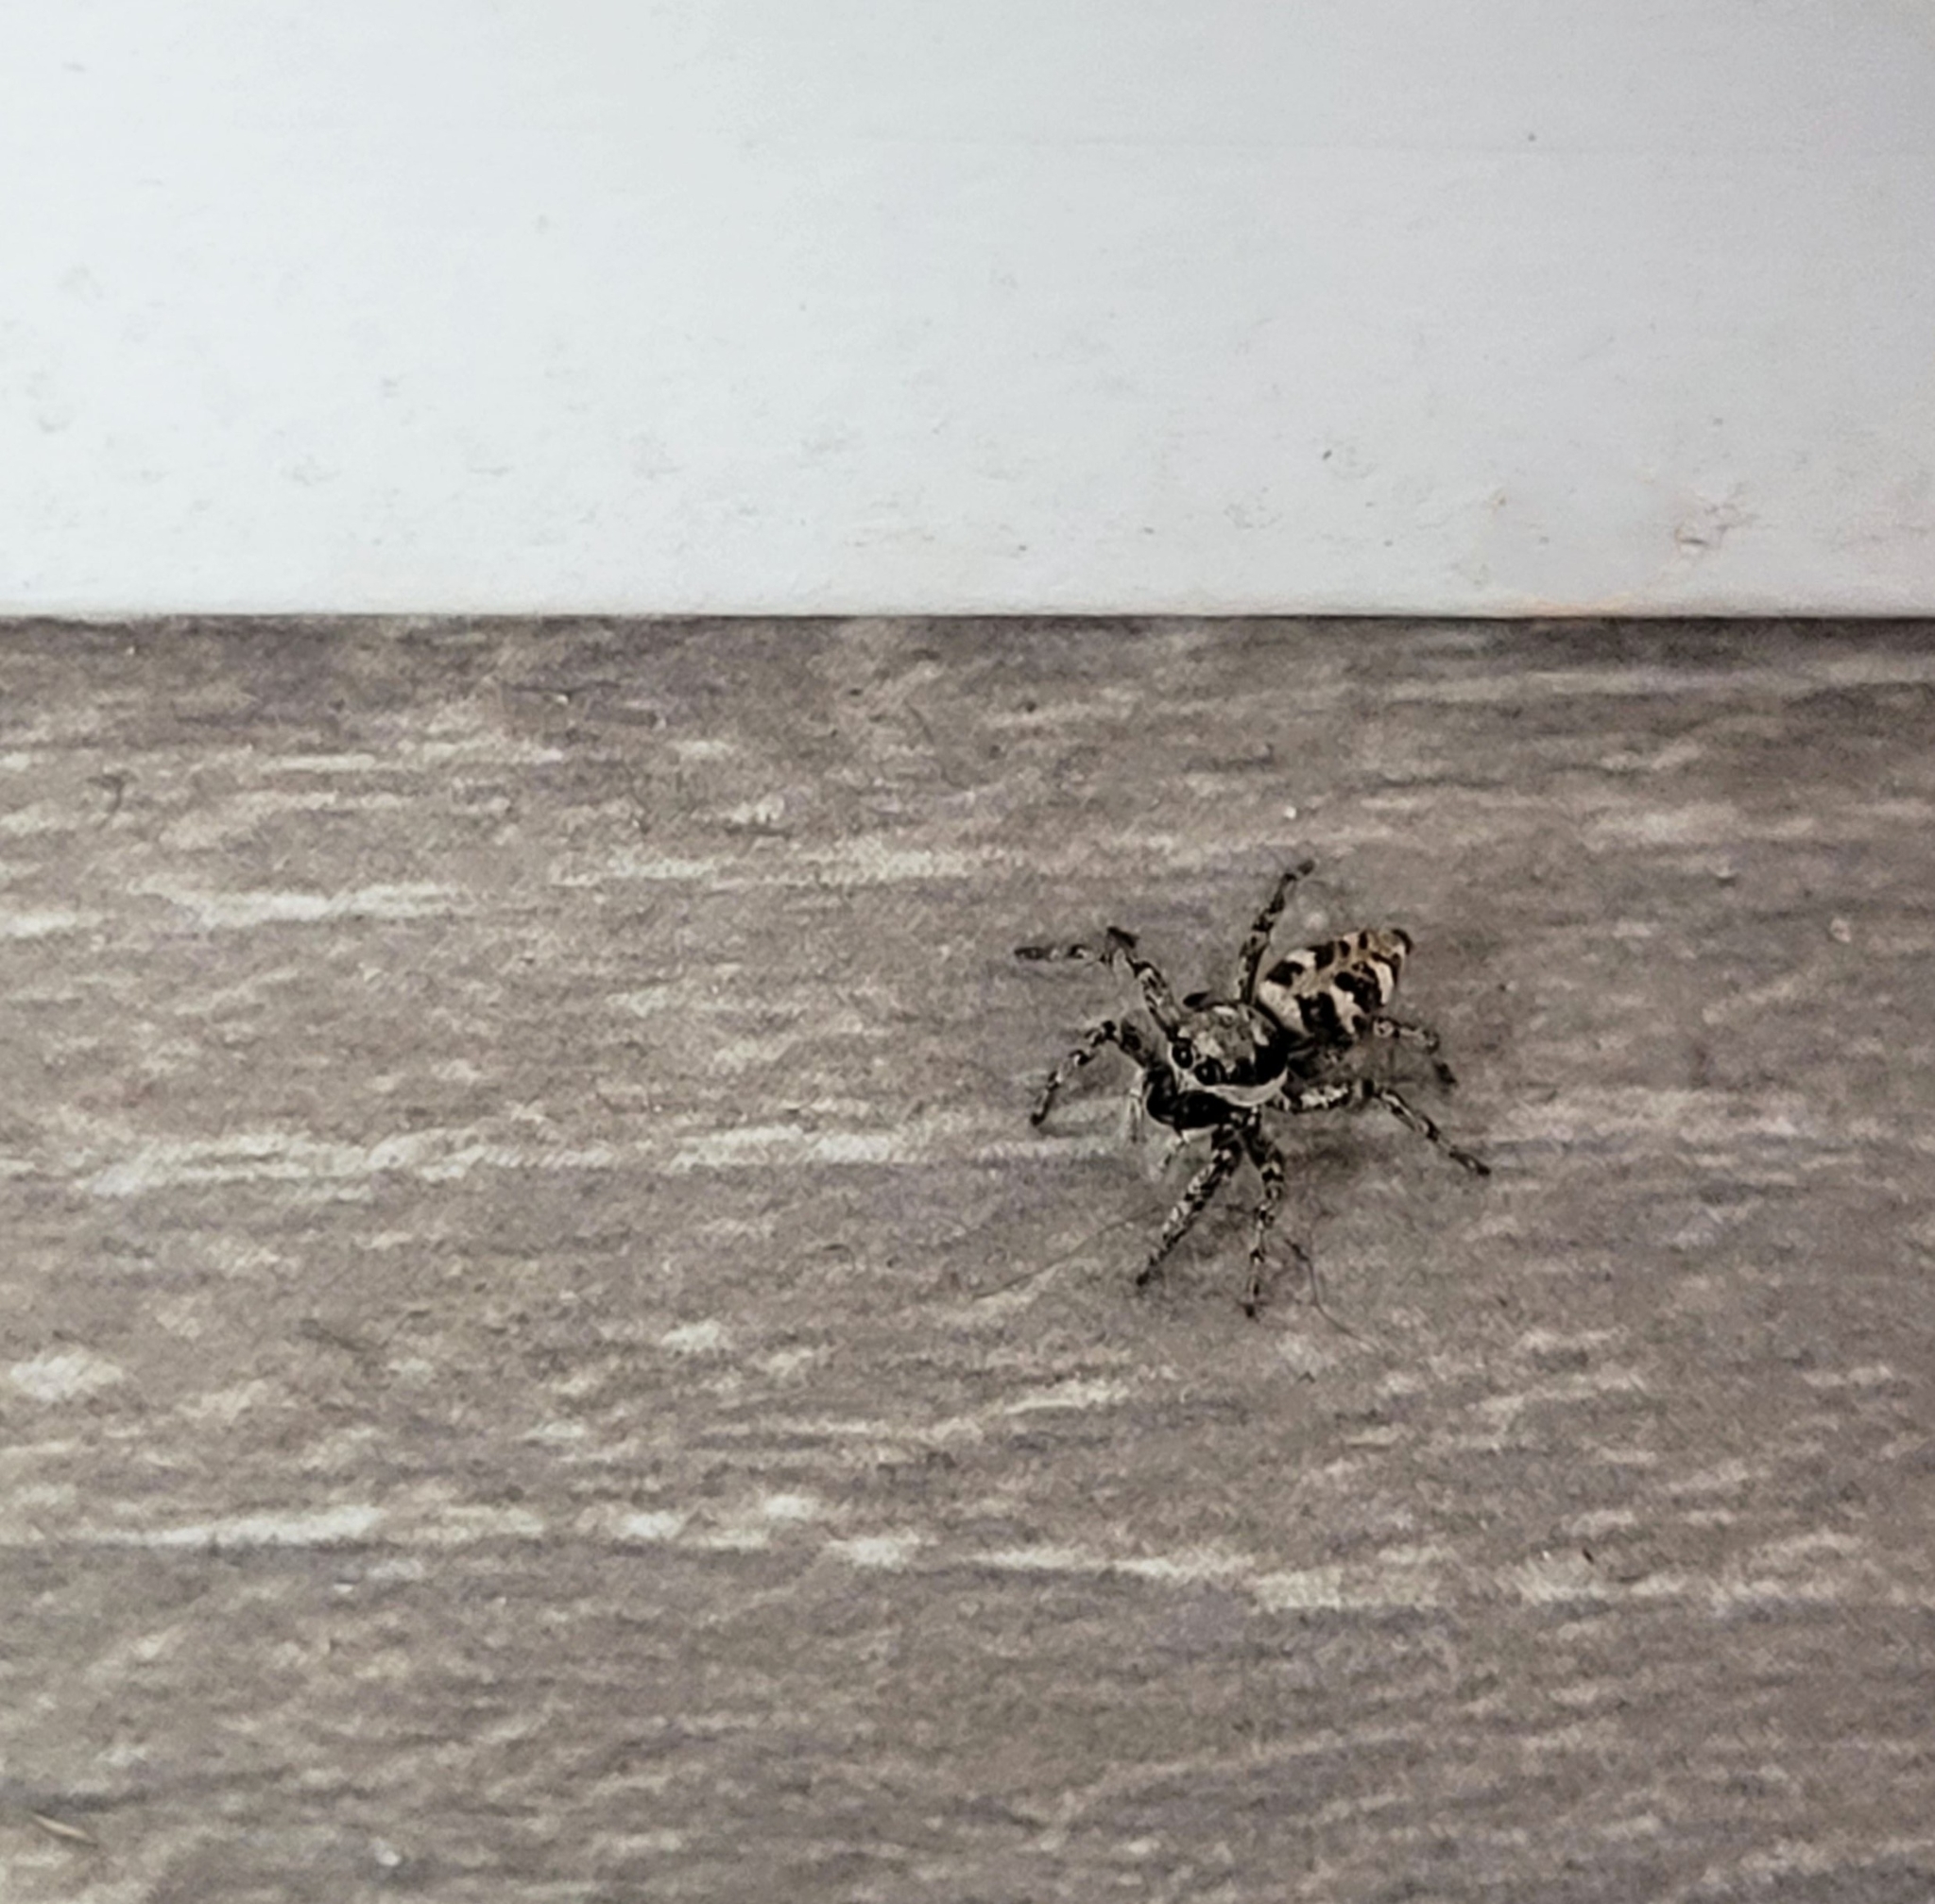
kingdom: Animalia
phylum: Arthropoda
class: Arachnida
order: Araneae
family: Salticidae
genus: Salticus
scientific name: Salticus scenicus
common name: Zebra jumper
